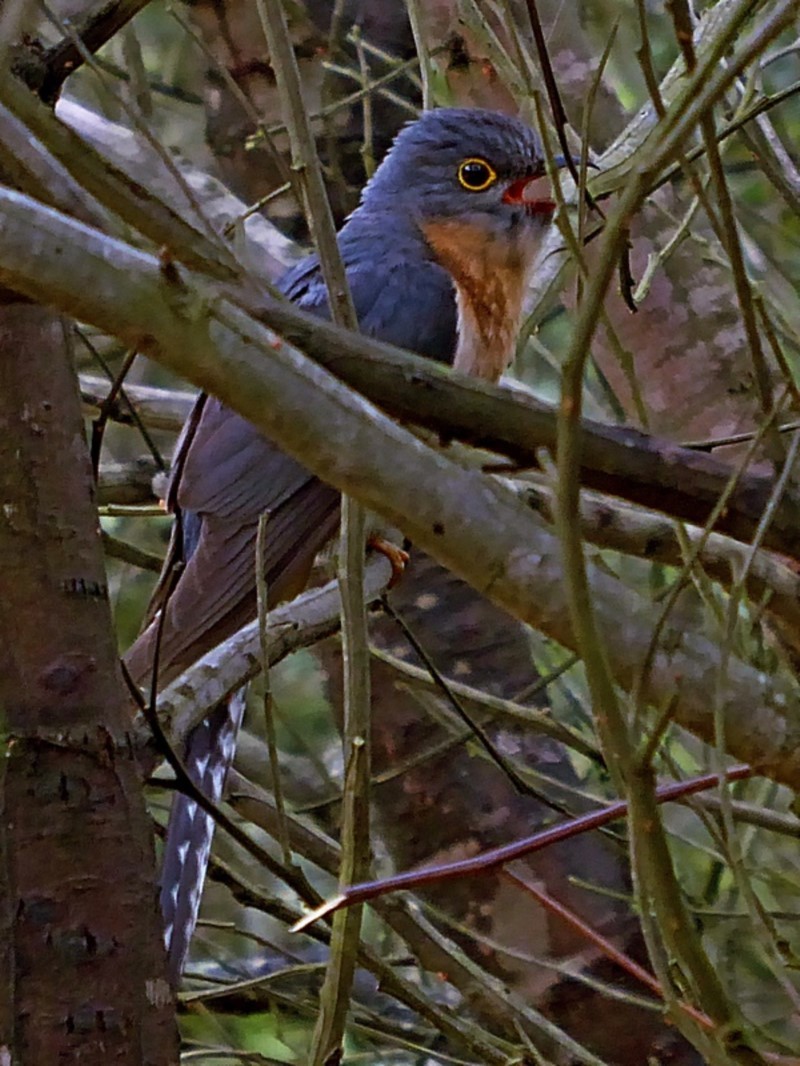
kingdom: Animalia
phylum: Chordata
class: Aves
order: Cuculiformes
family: Cuculidae
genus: Cacomantis
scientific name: Cacomantis flabelliformis
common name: Fan-tailed cuckoo
